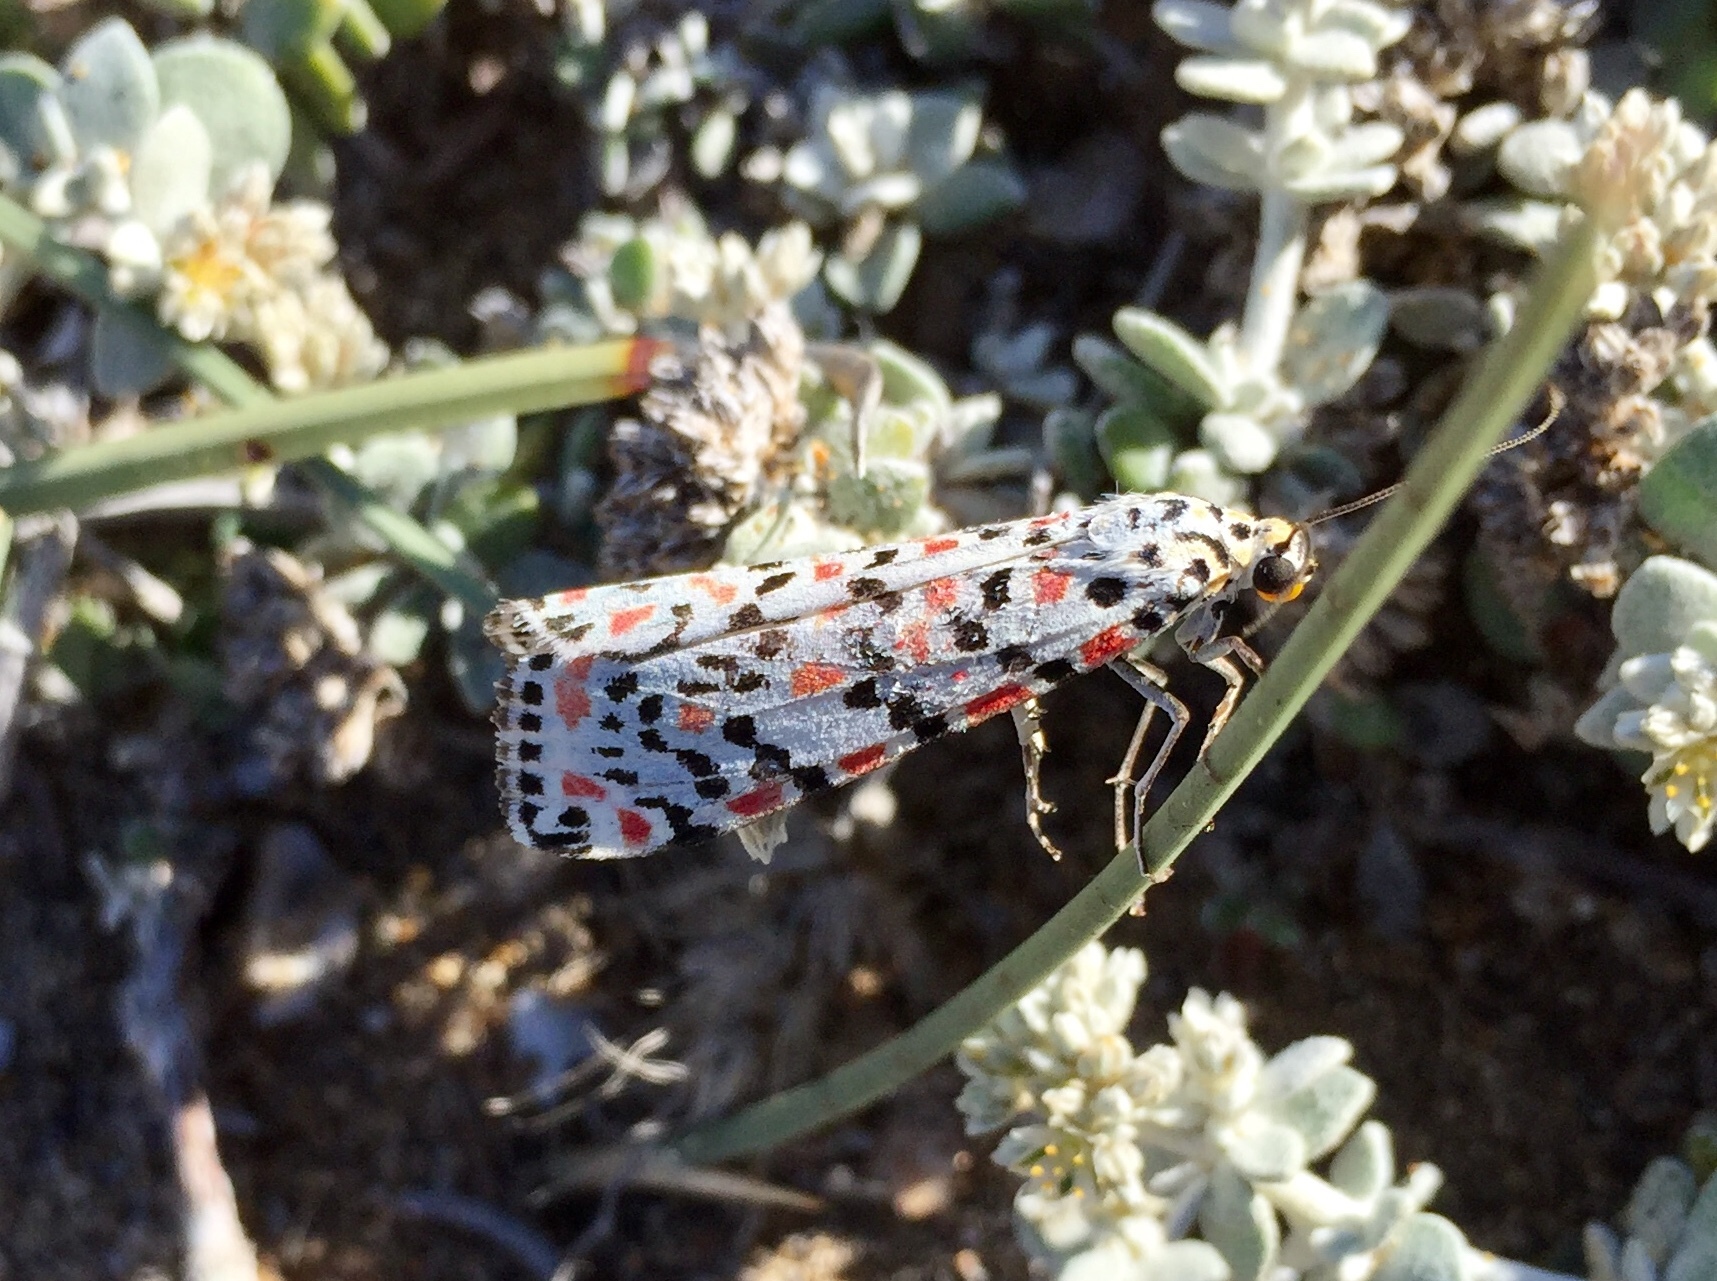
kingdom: Animalia
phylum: Arthropoda
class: Insecta
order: Lepidoptera
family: Erebidae
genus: Utetheisa
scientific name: Utetheisa pulchella
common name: Crimson speckled
